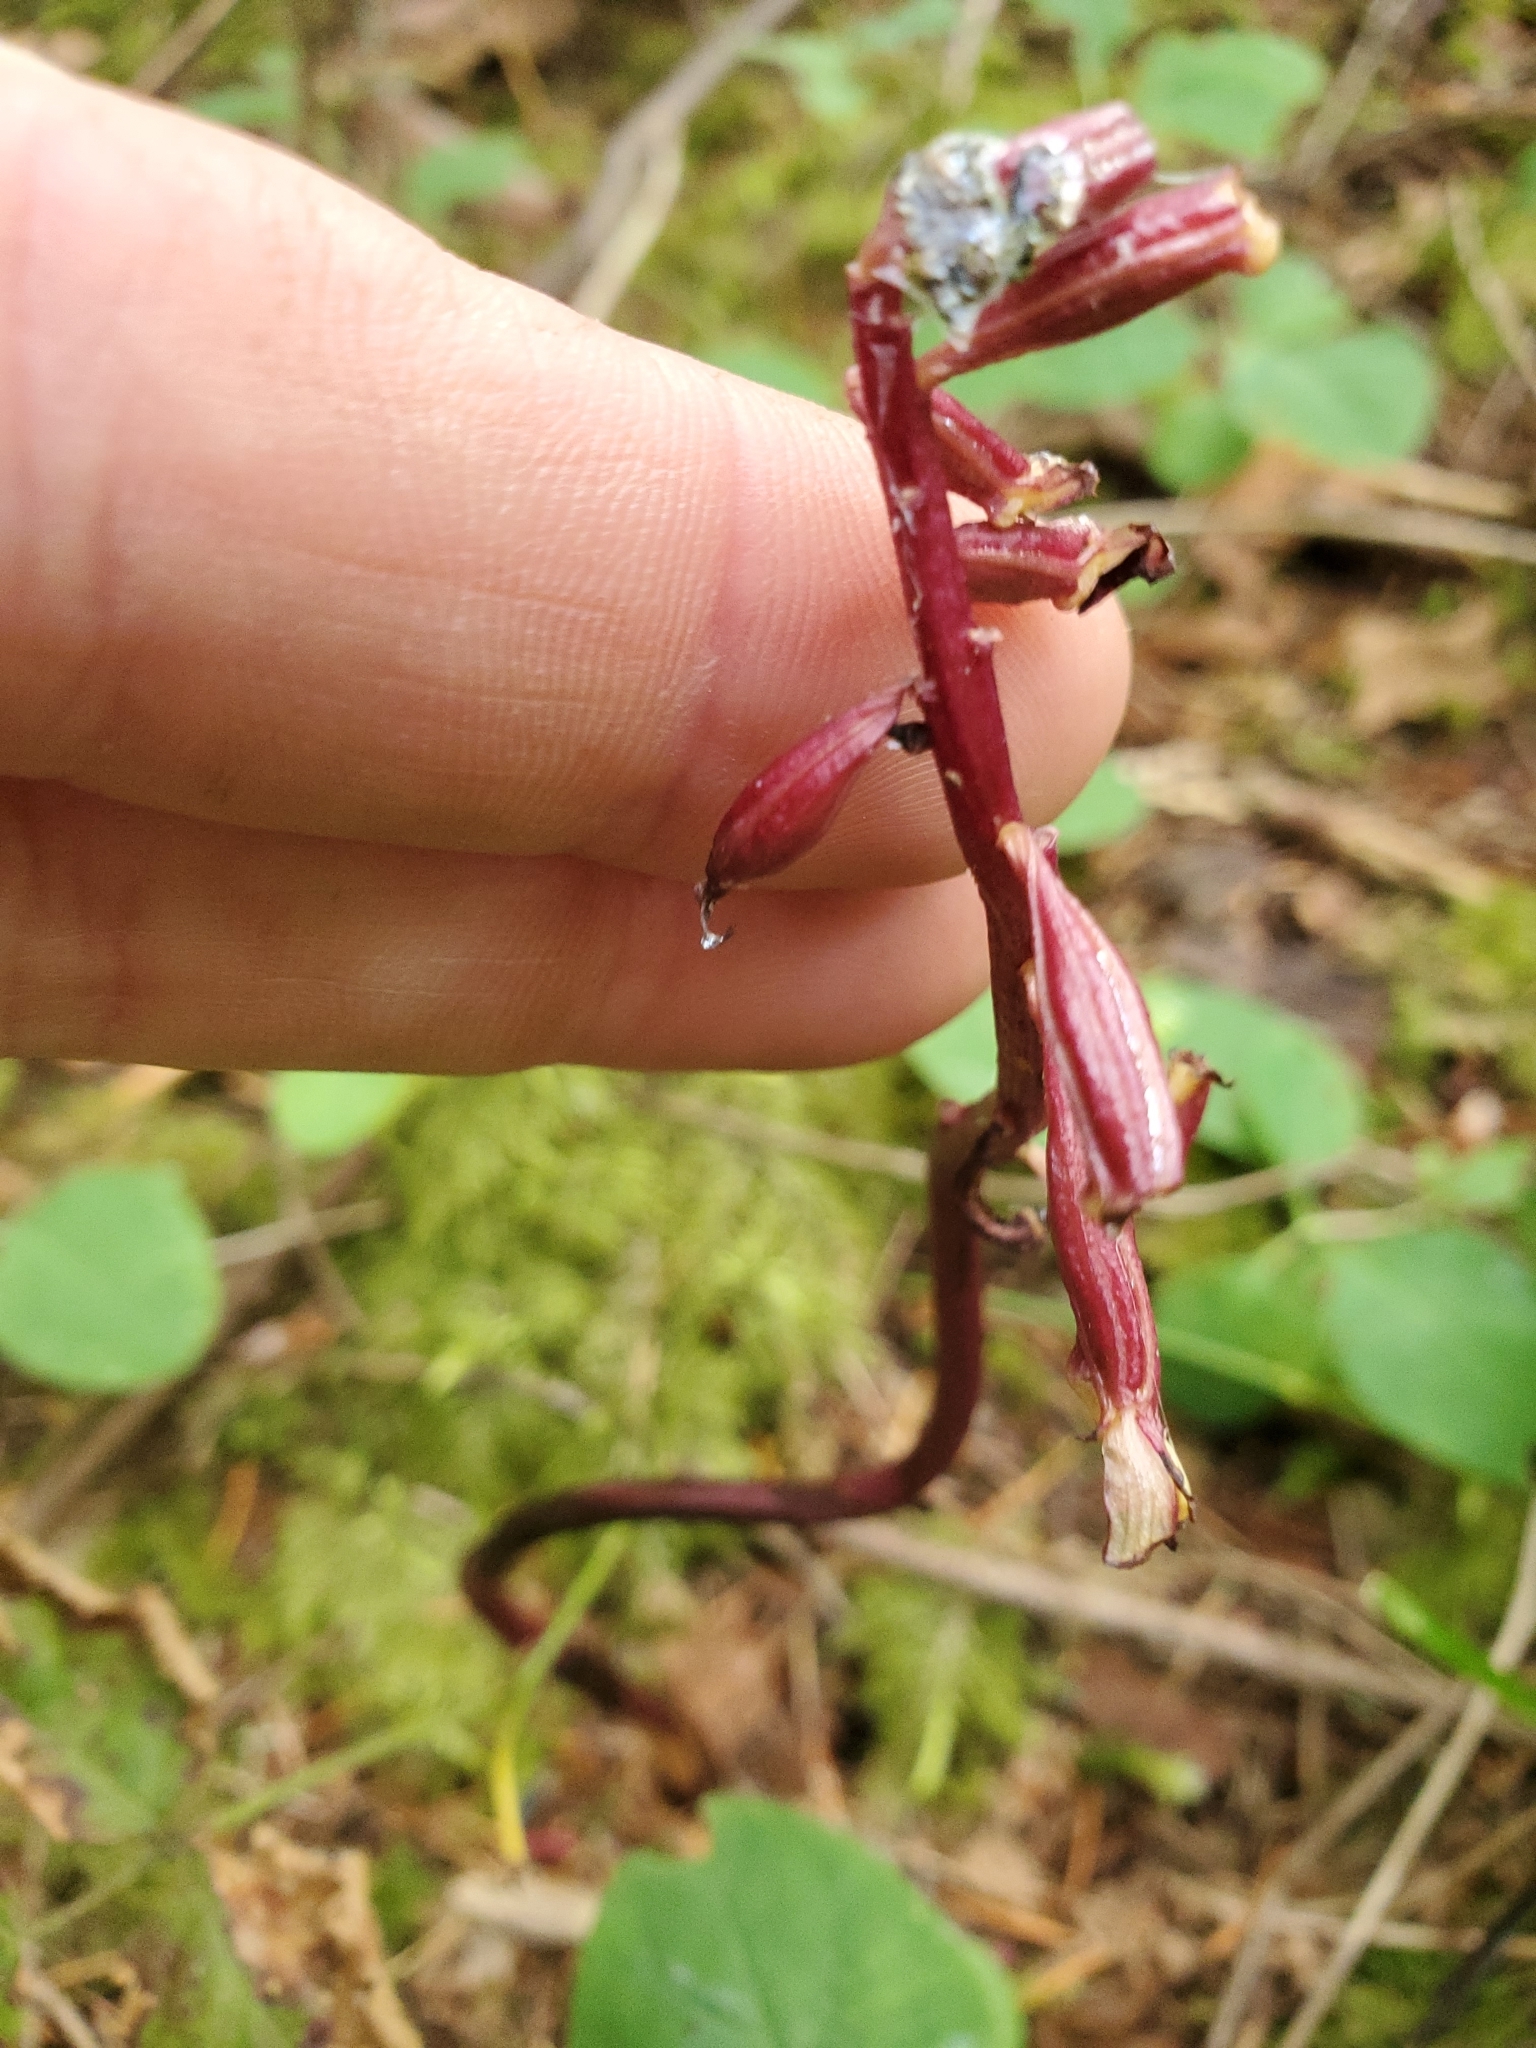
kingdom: Plantae
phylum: Tracheophyta
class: Liliopsida
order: Asparagales
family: Orchidaceae
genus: Corallorhiza
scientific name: Corallorhiza maculata
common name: Spotted coralroot
